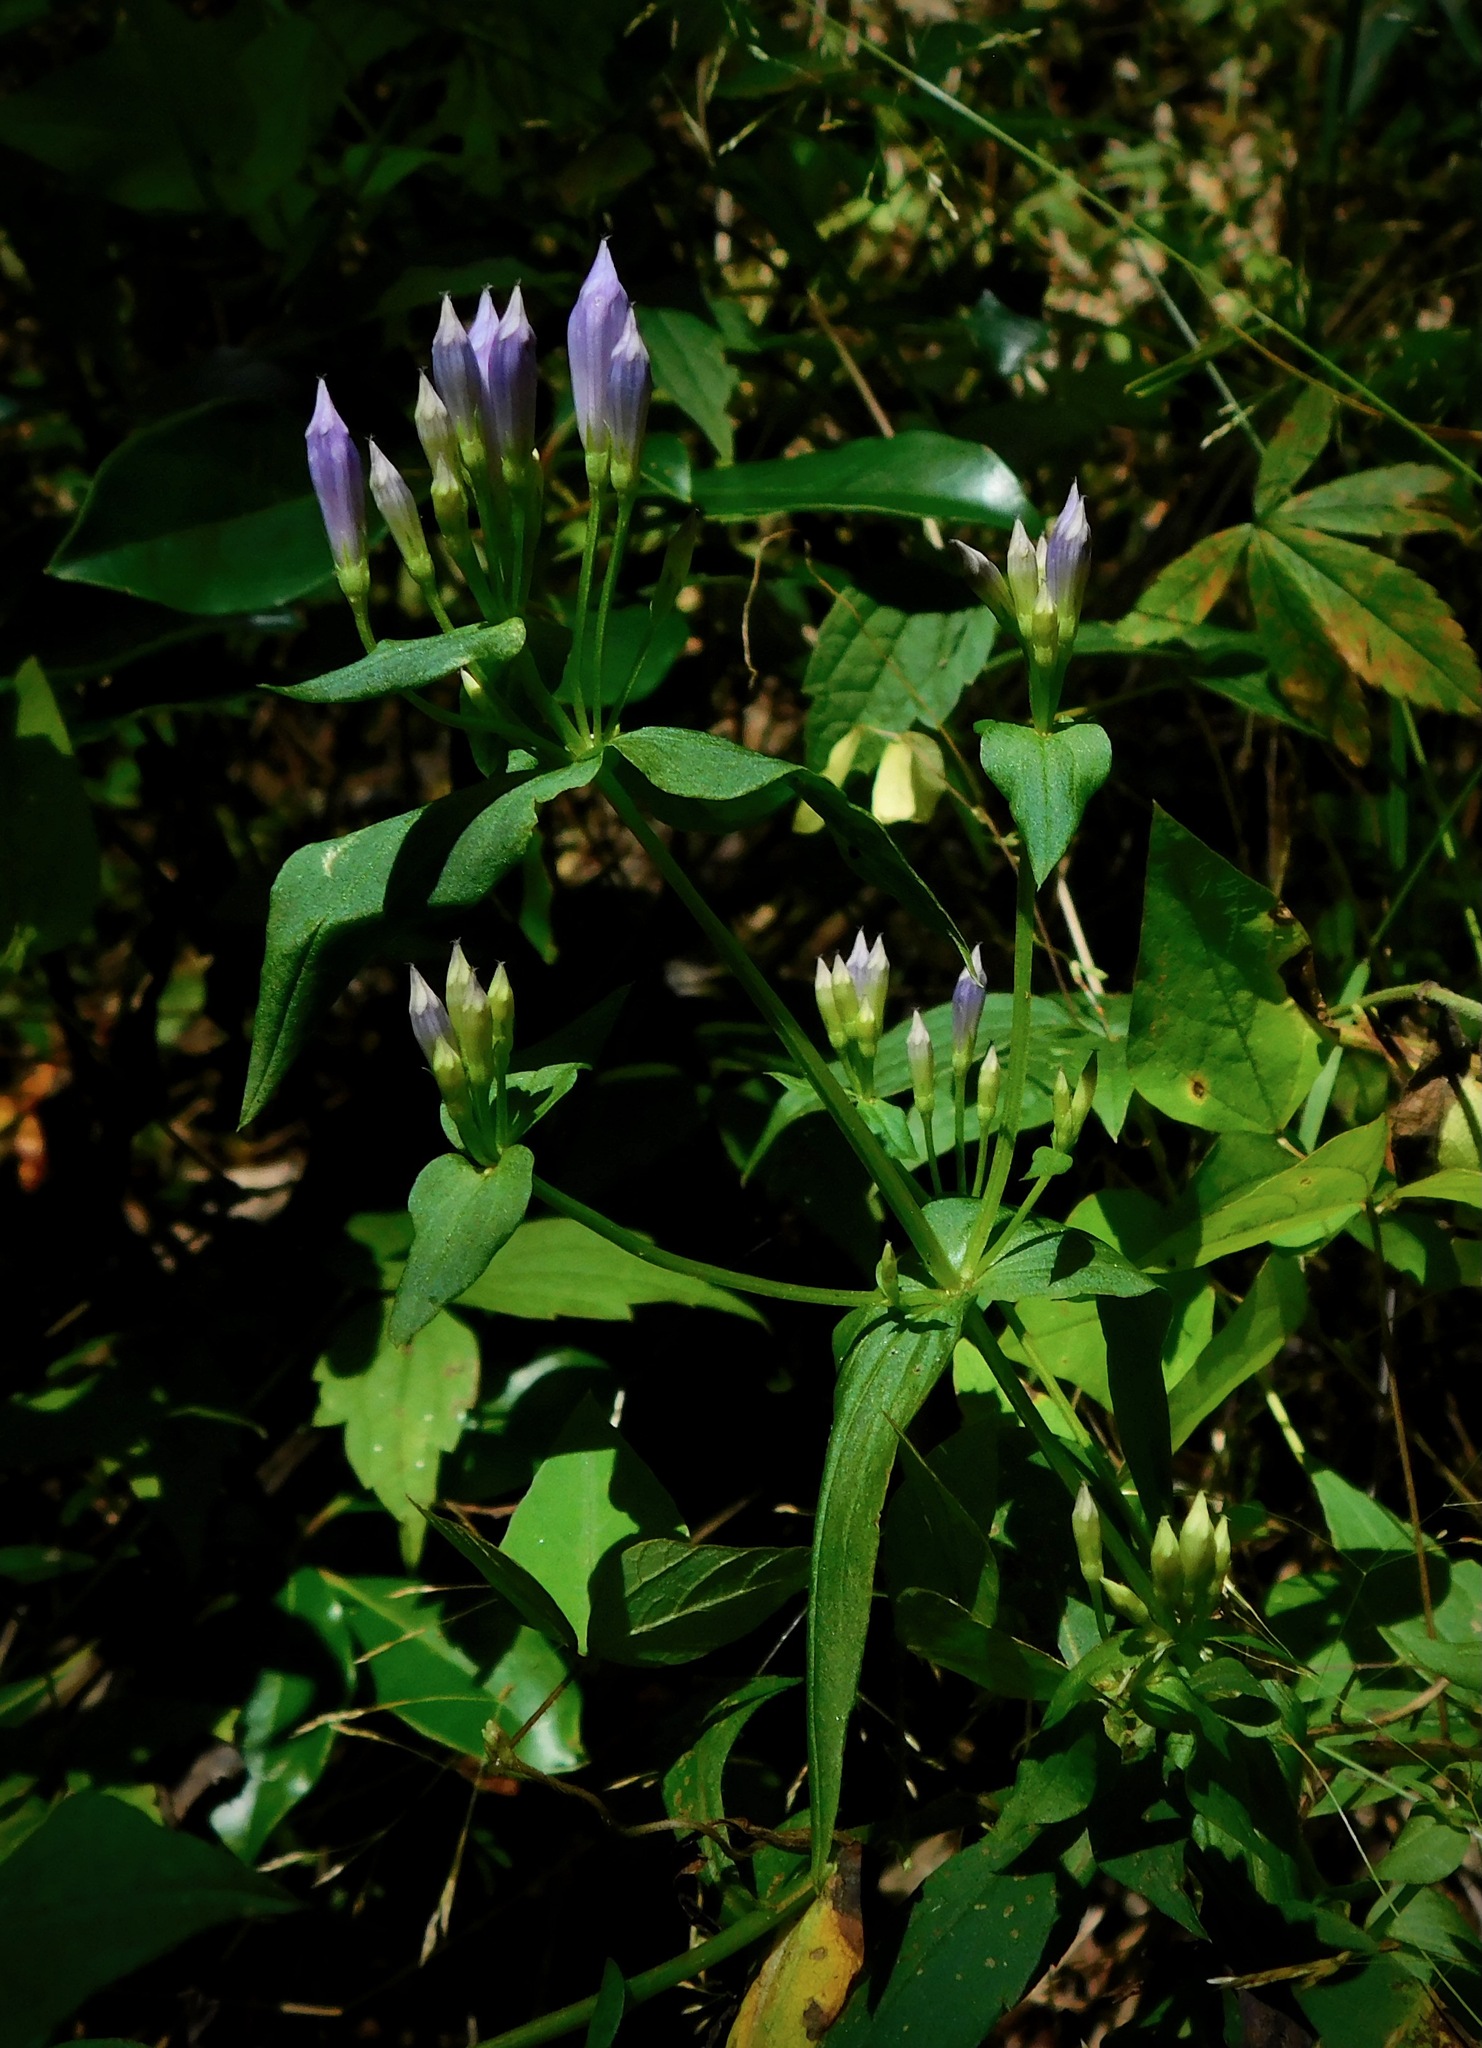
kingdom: Plantae
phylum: Tracheophyta
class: Magnoliopsida
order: Gentianales
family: Gentianaceae
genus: Gentianella
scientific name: Gentianella quinquefolia
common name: Agueweed
